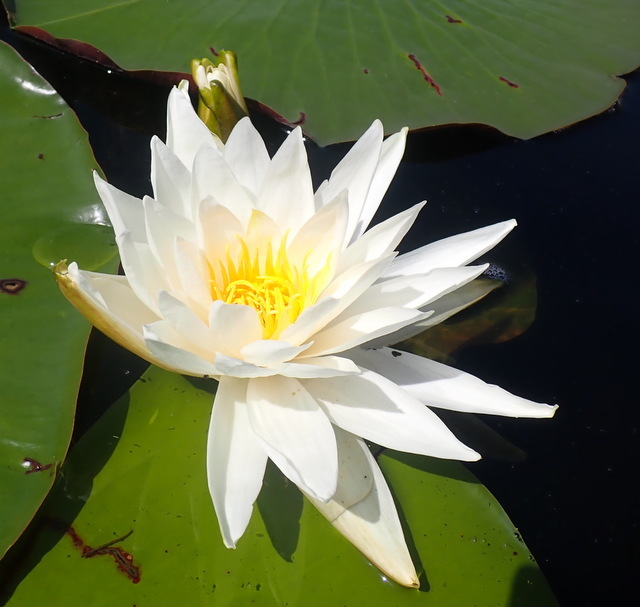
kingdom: Plantae
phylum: Tracheophyta
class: Magnoliopsida
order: Nymphaeales
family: Nymphaeaceae
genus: Nymphaea
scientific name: Nymphaea odorata
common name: Fragrant water-lily
